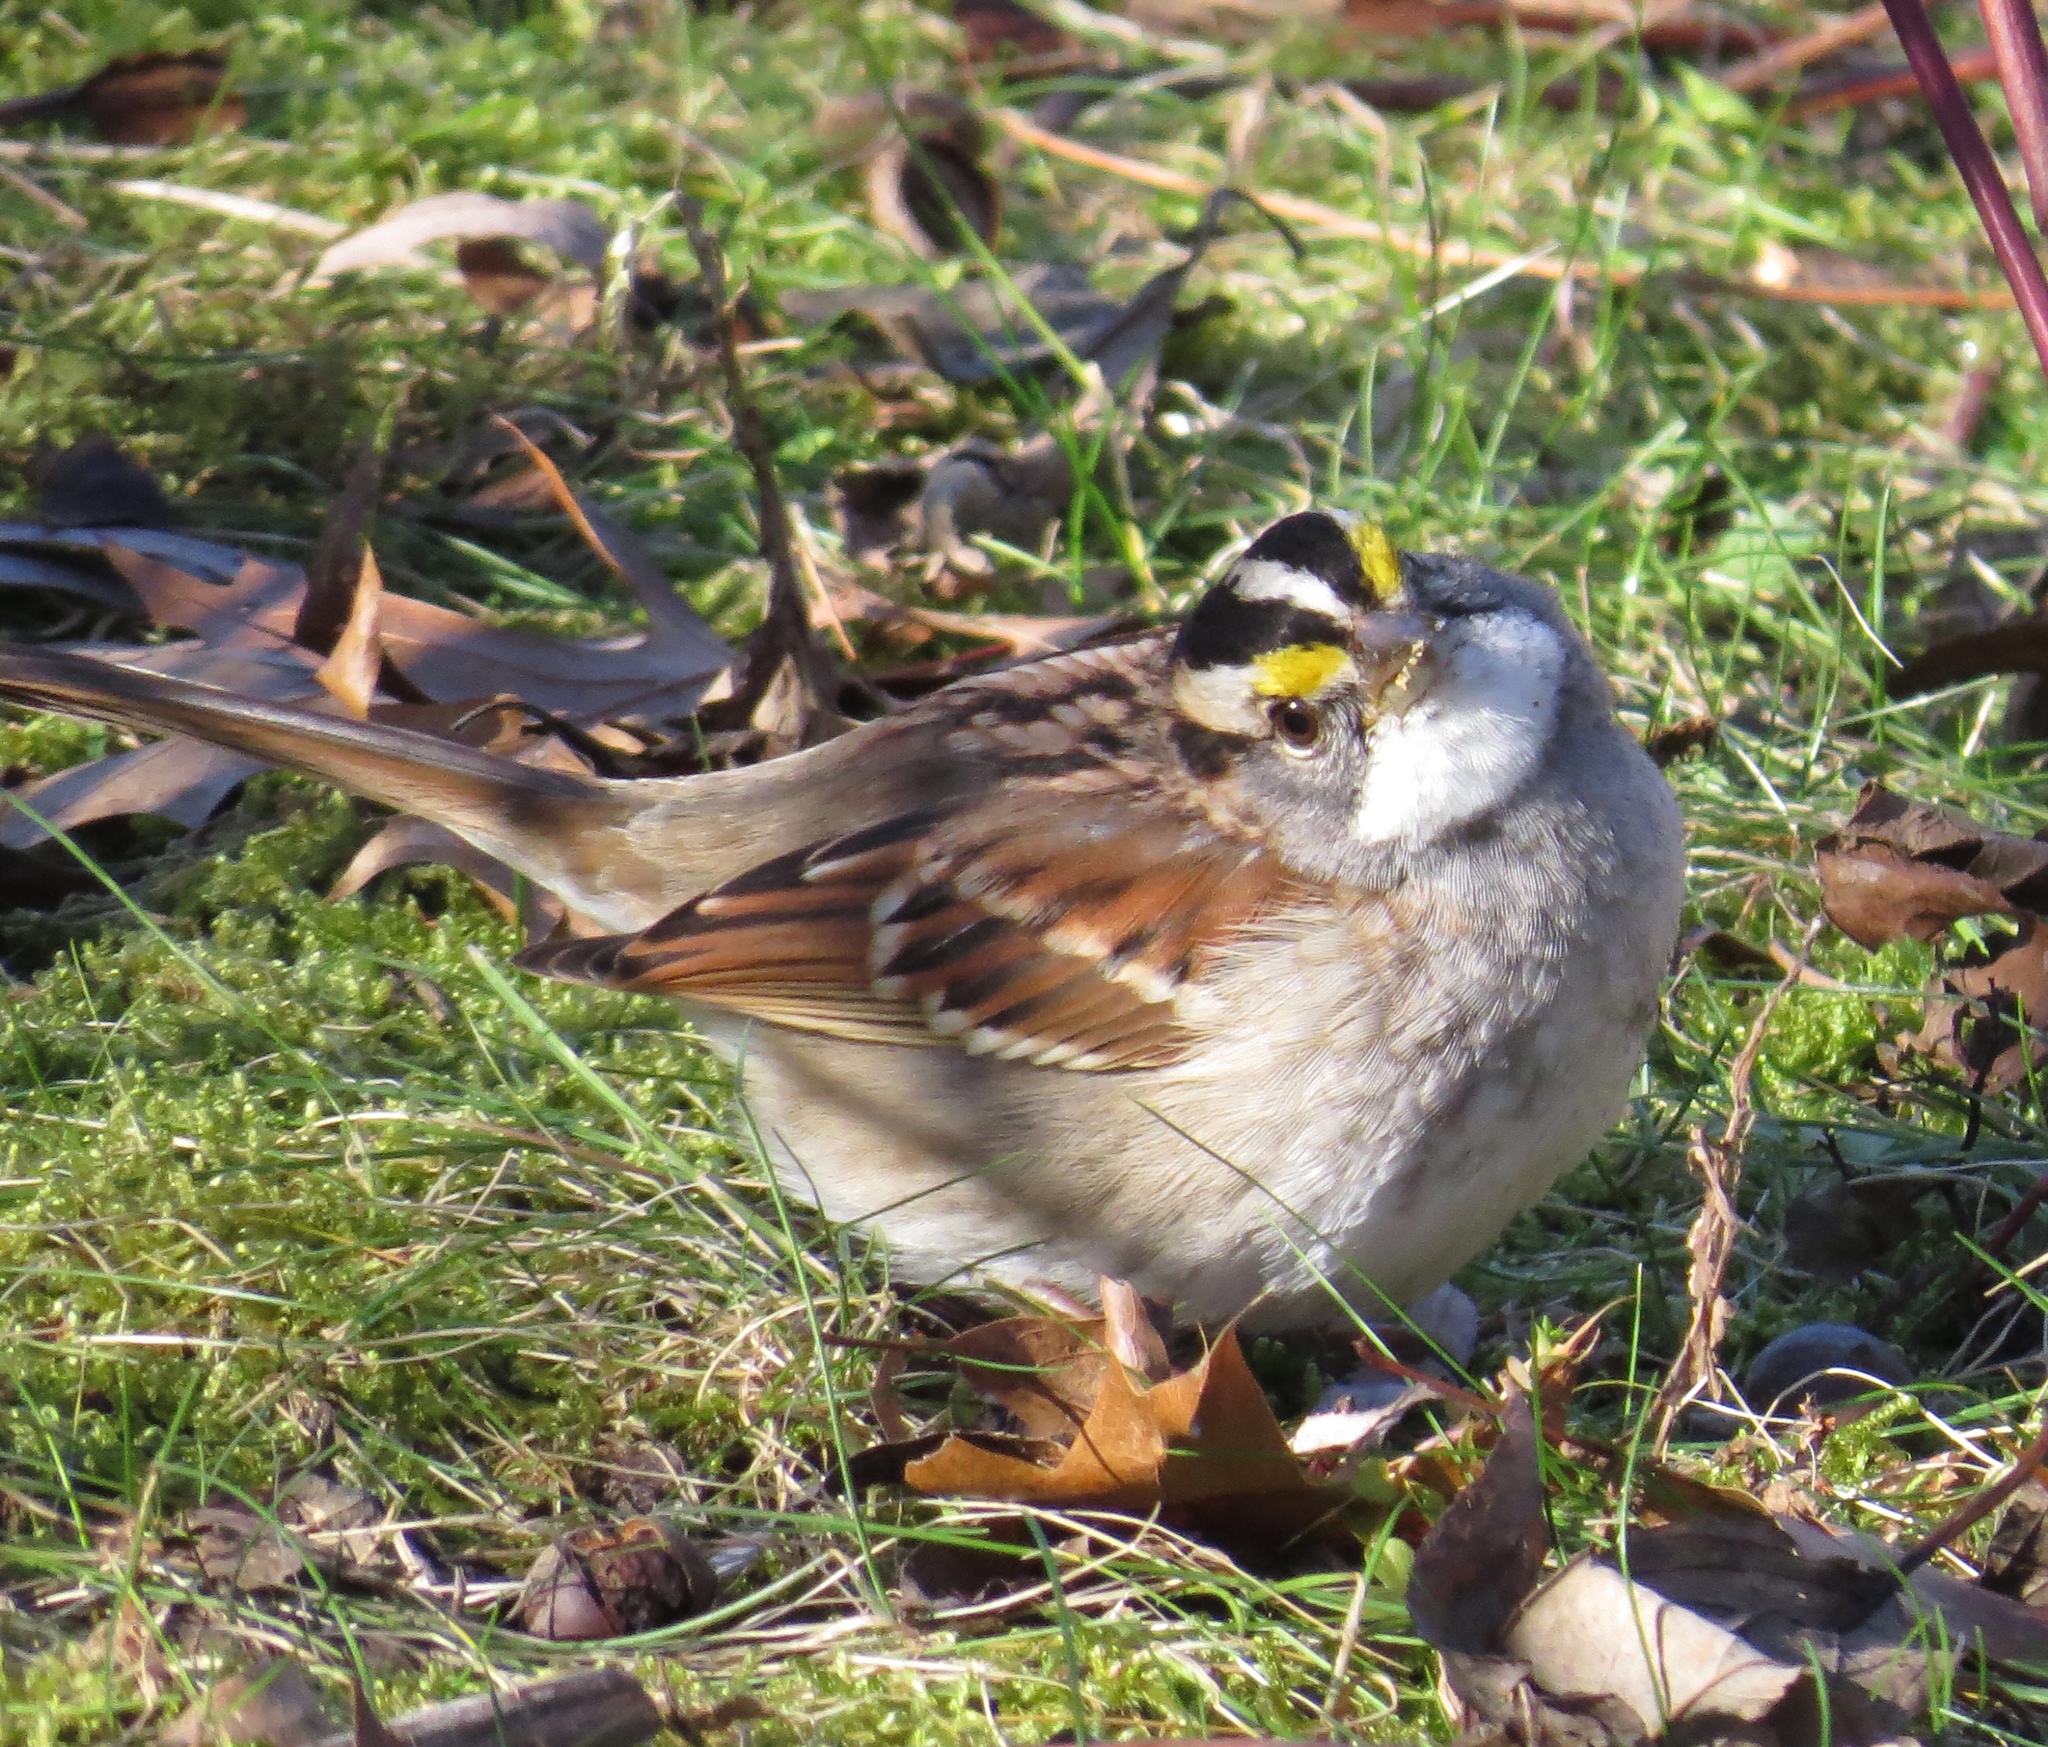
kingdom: Animalia
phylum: Chordata
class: Aves
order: Passeriformes
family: Passerellidae
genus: Zonotrichia
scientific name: Zonotrichia albicollis
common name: White-throated sparrow
